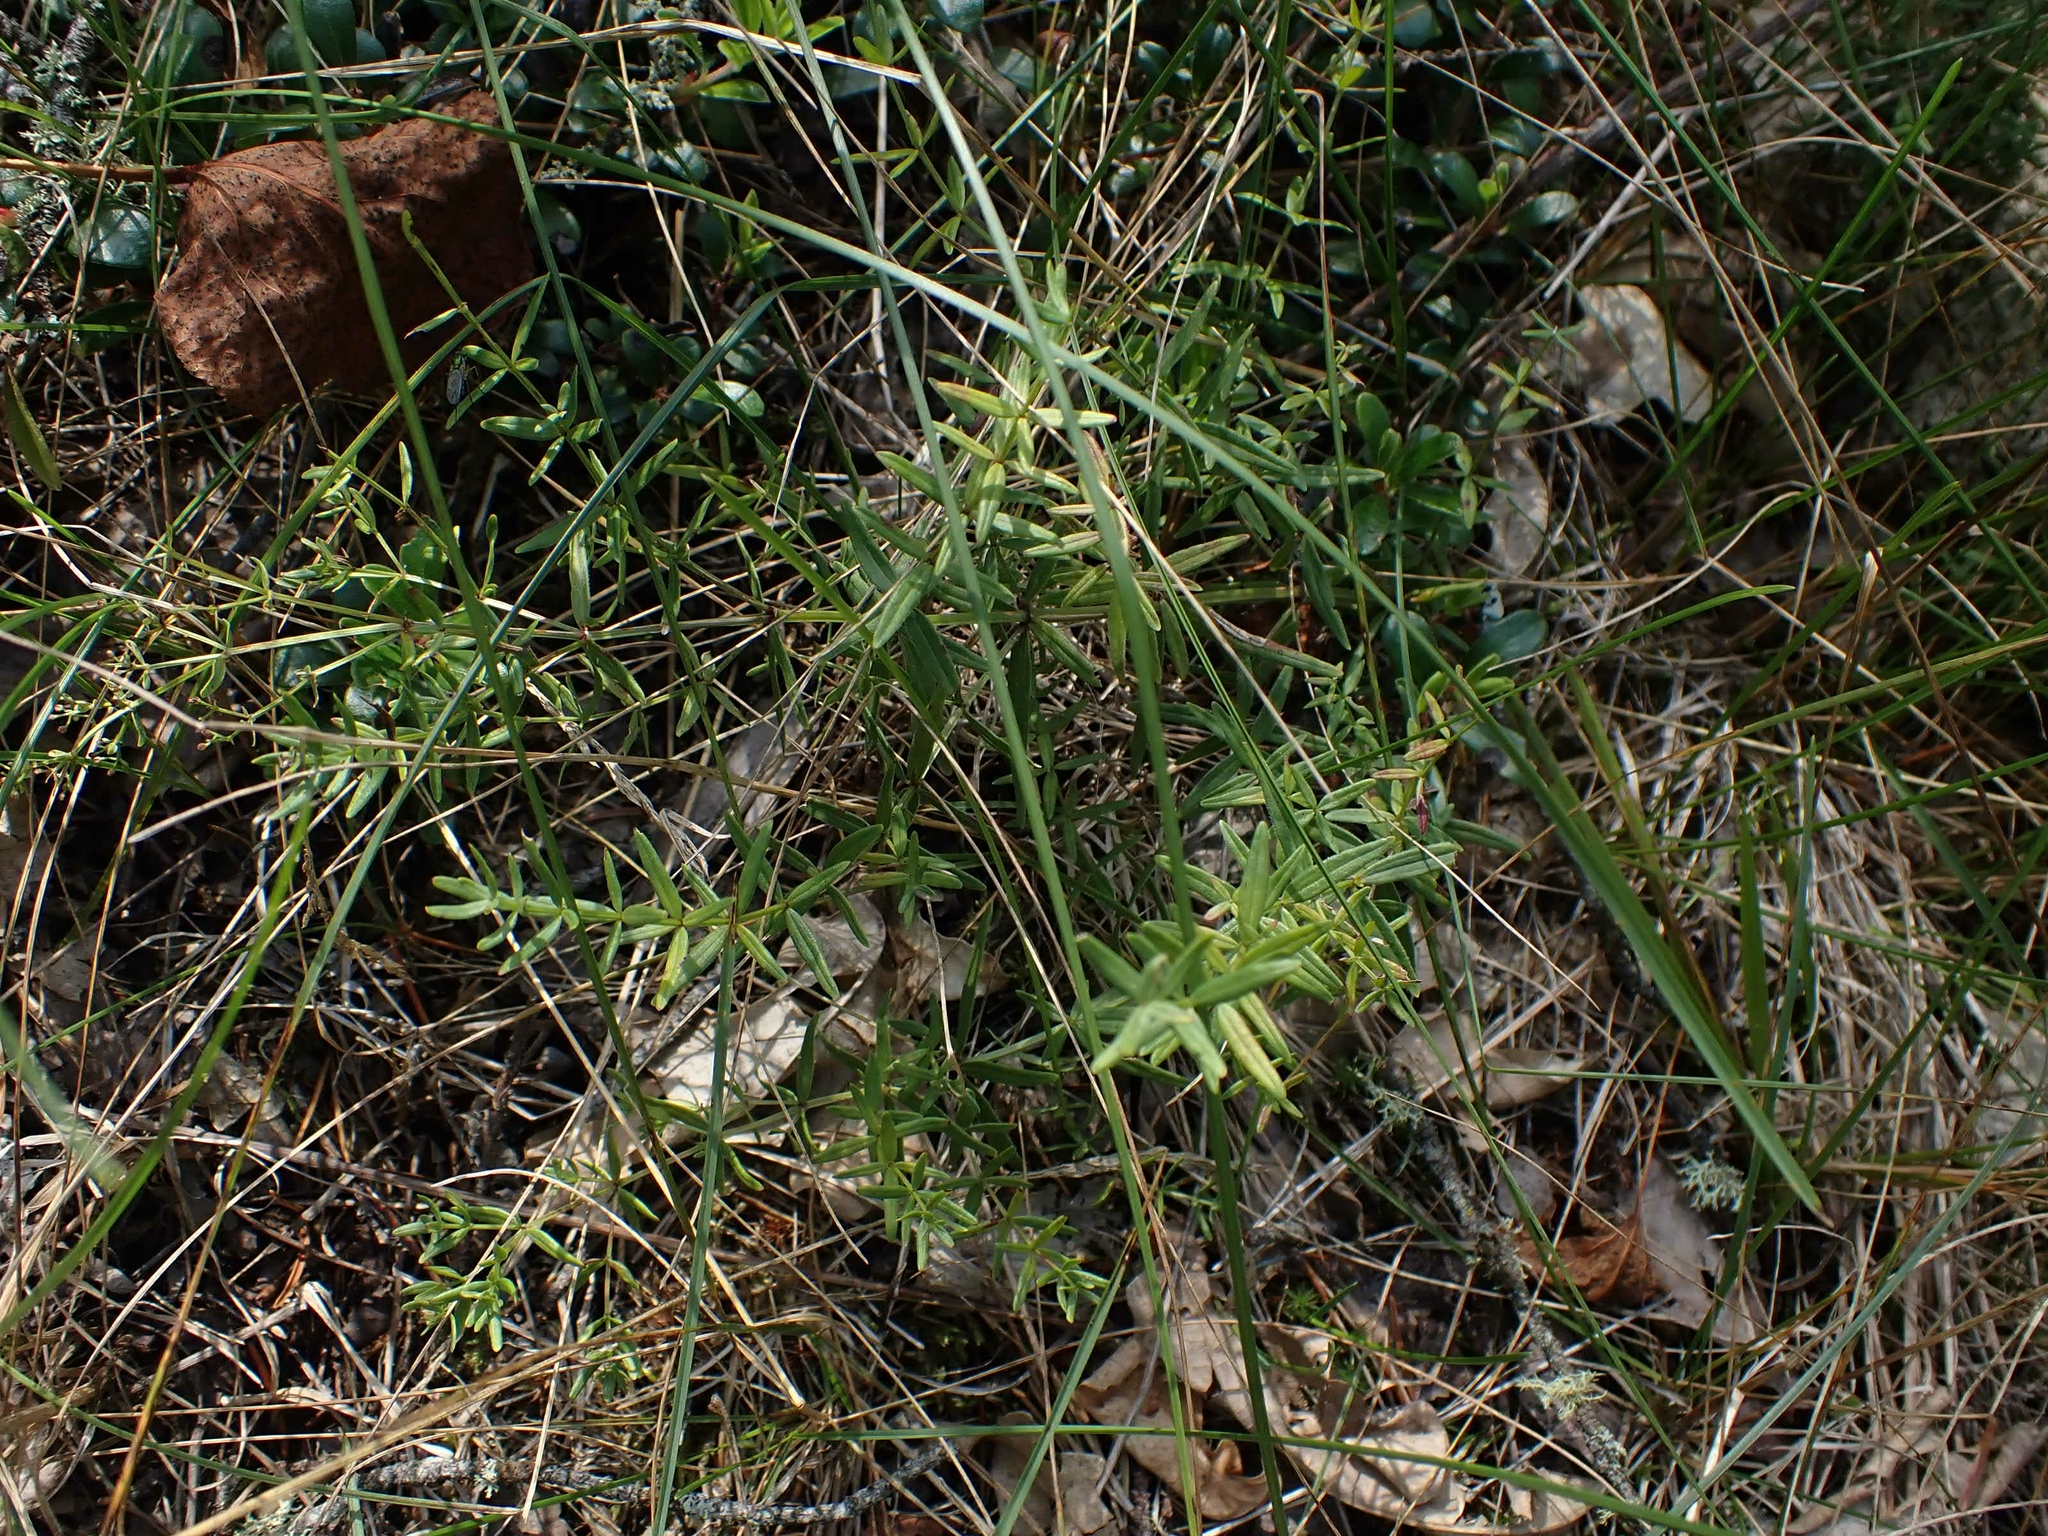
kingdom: Plantae
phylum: Tracheophyta
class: Magnoliopsida
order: Gentianales
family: Rubiaceae
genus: Galium
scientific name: Galium boreale
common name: Northern bedstraw
